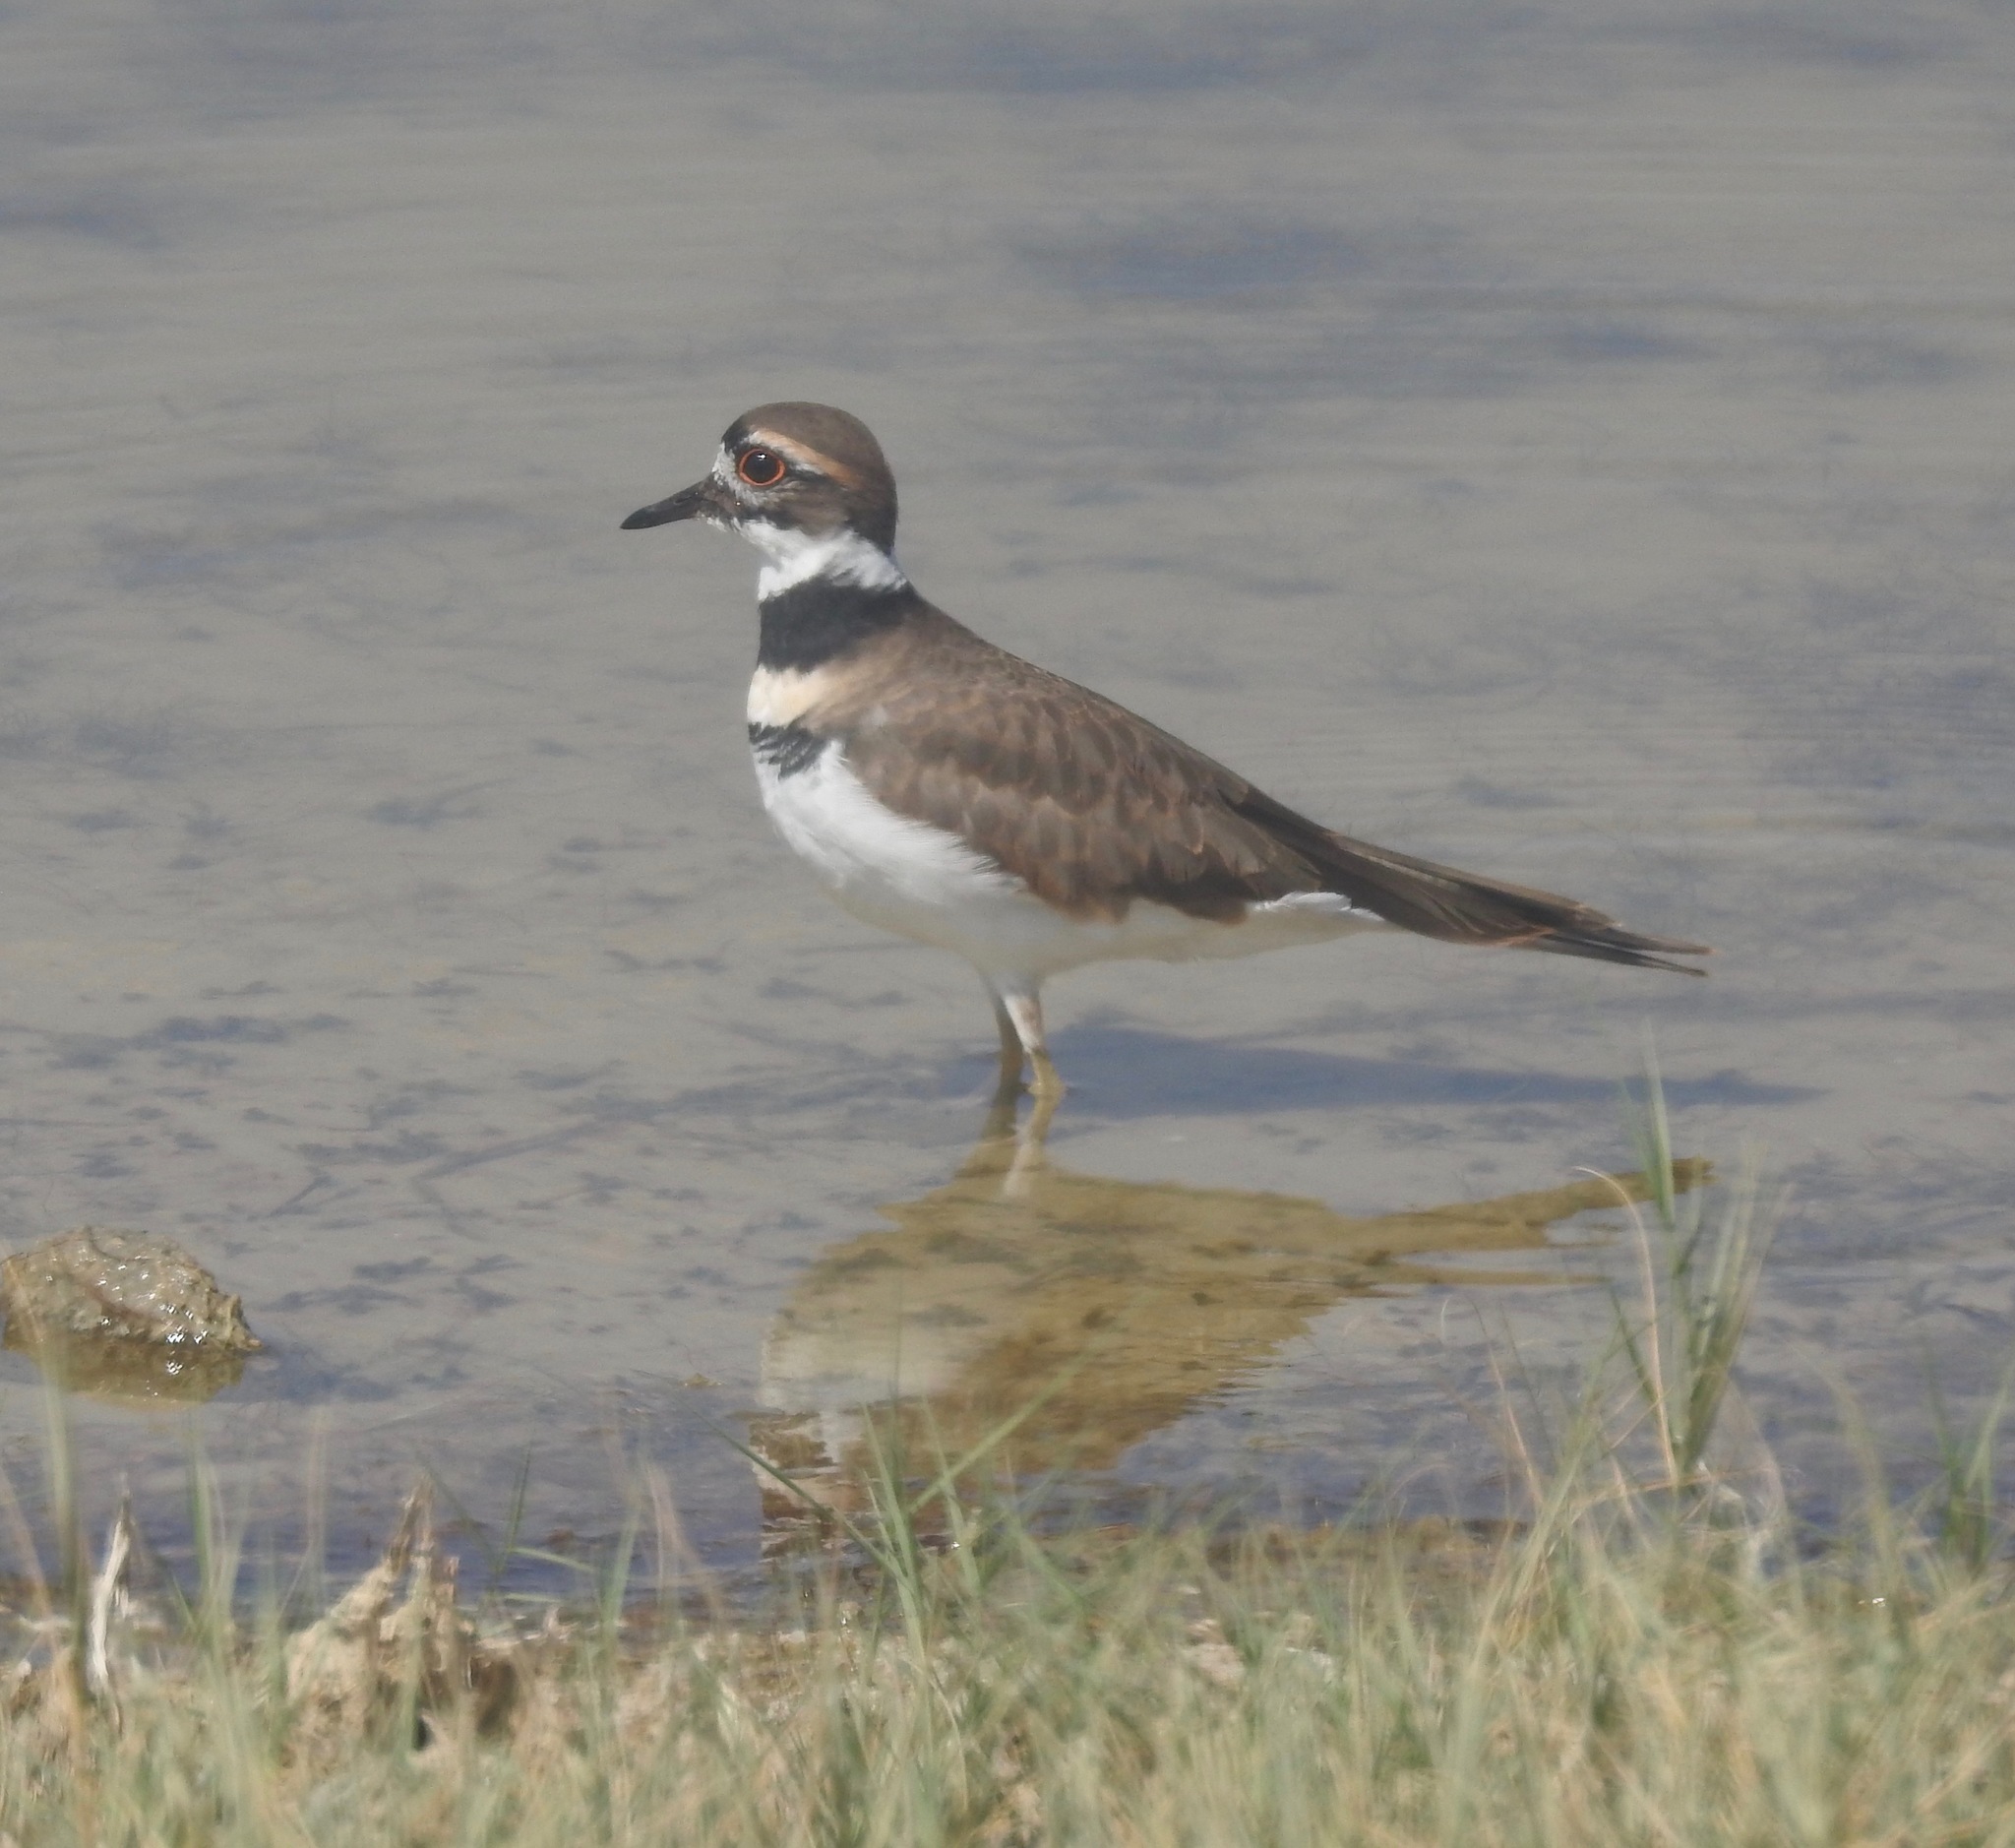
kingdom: Animalia
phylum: Chordata
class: Aves
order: Charadriiformes
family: Charadriidae
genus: Charadrius
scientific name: Charadrius vociferus
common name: Killdeer
